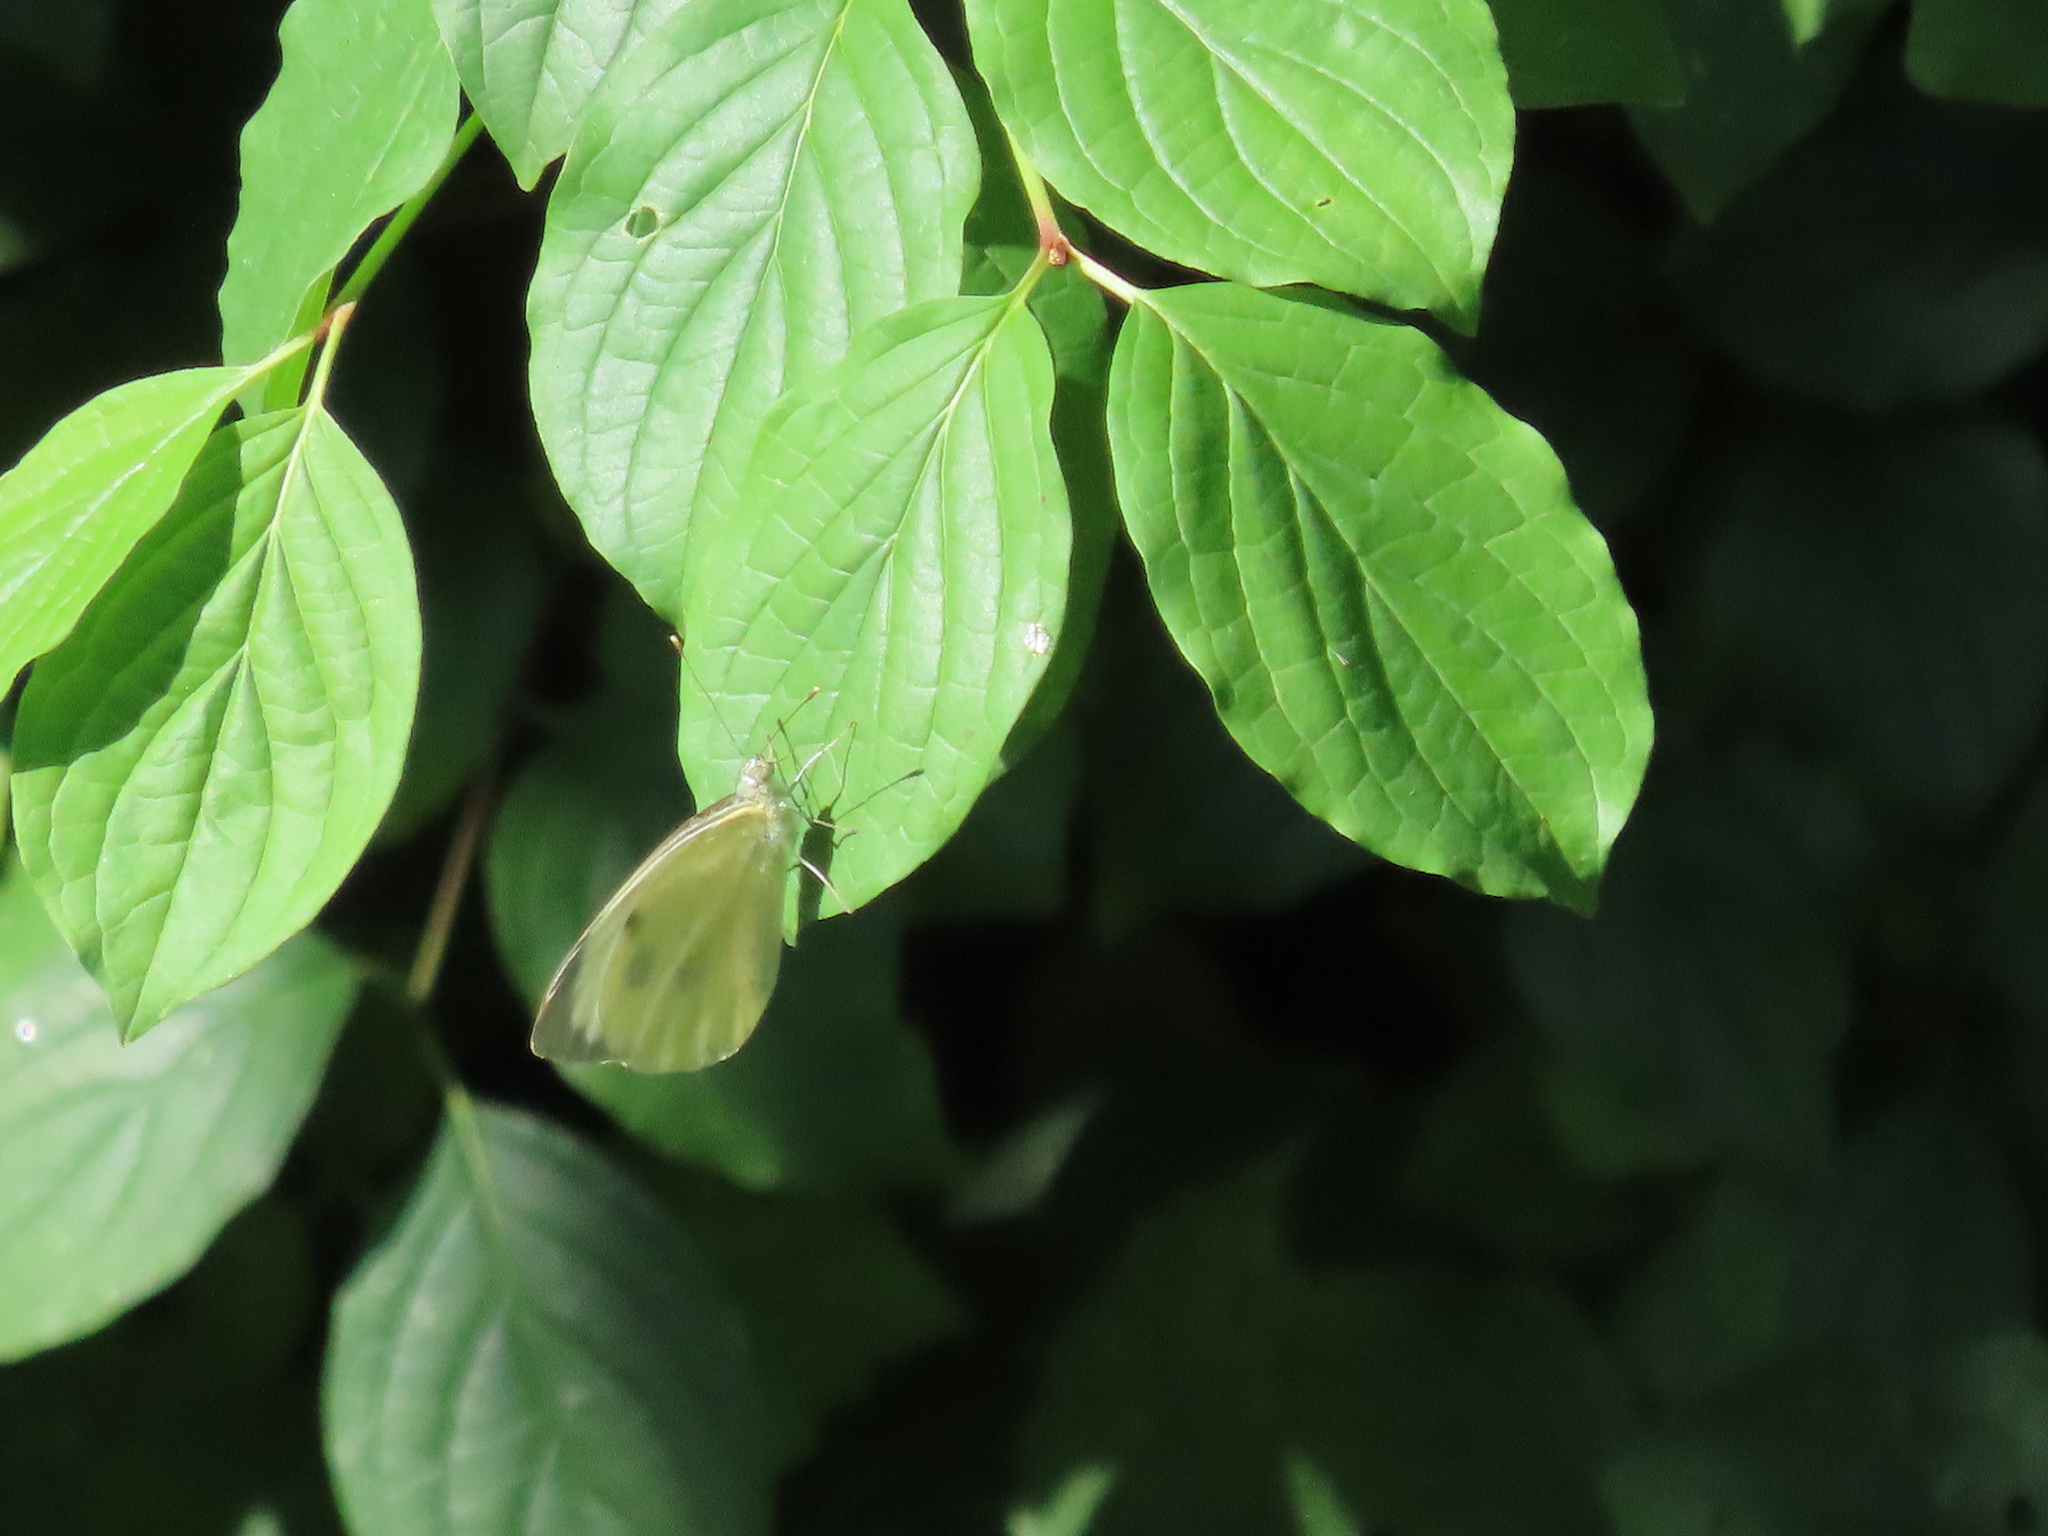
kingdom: Animalia
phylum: Arthropoda
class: Insecta
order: Lepidoptera
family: Pieridae
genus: Pieris
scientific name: Pieris brassicae
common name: Large white
